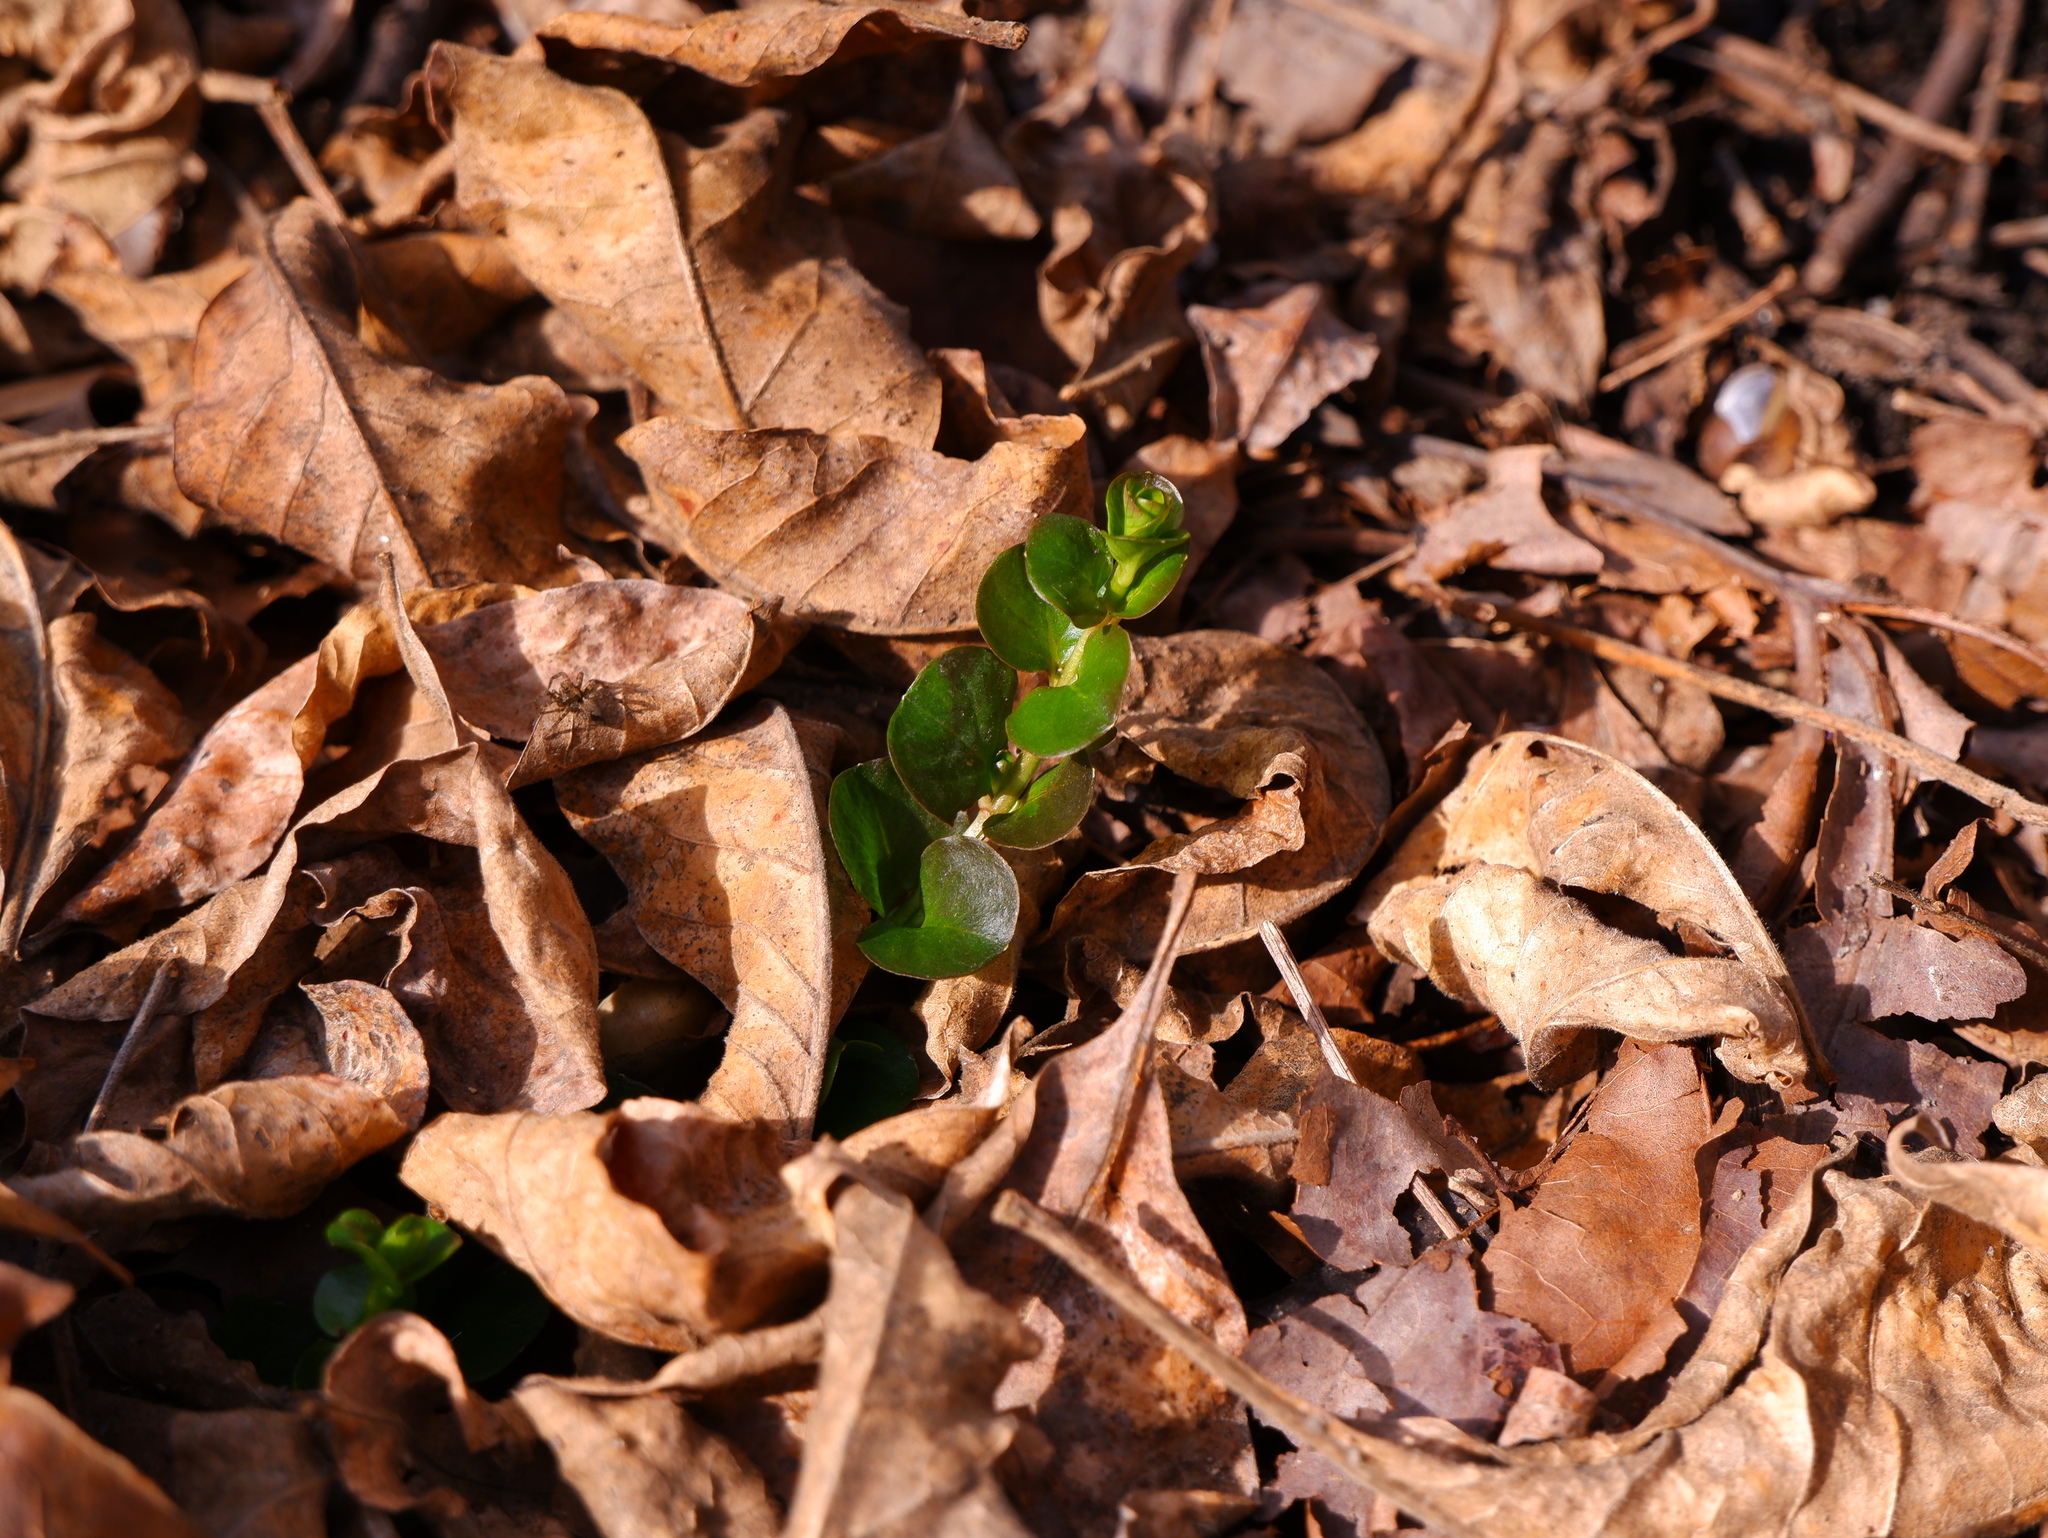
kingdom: Plantae
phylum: Tracheophyta
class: Magnoliopsida
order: Ericales
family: Primulaceae
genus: Lysimachia
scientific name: Lysimachia nummularia
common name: Moneywort
